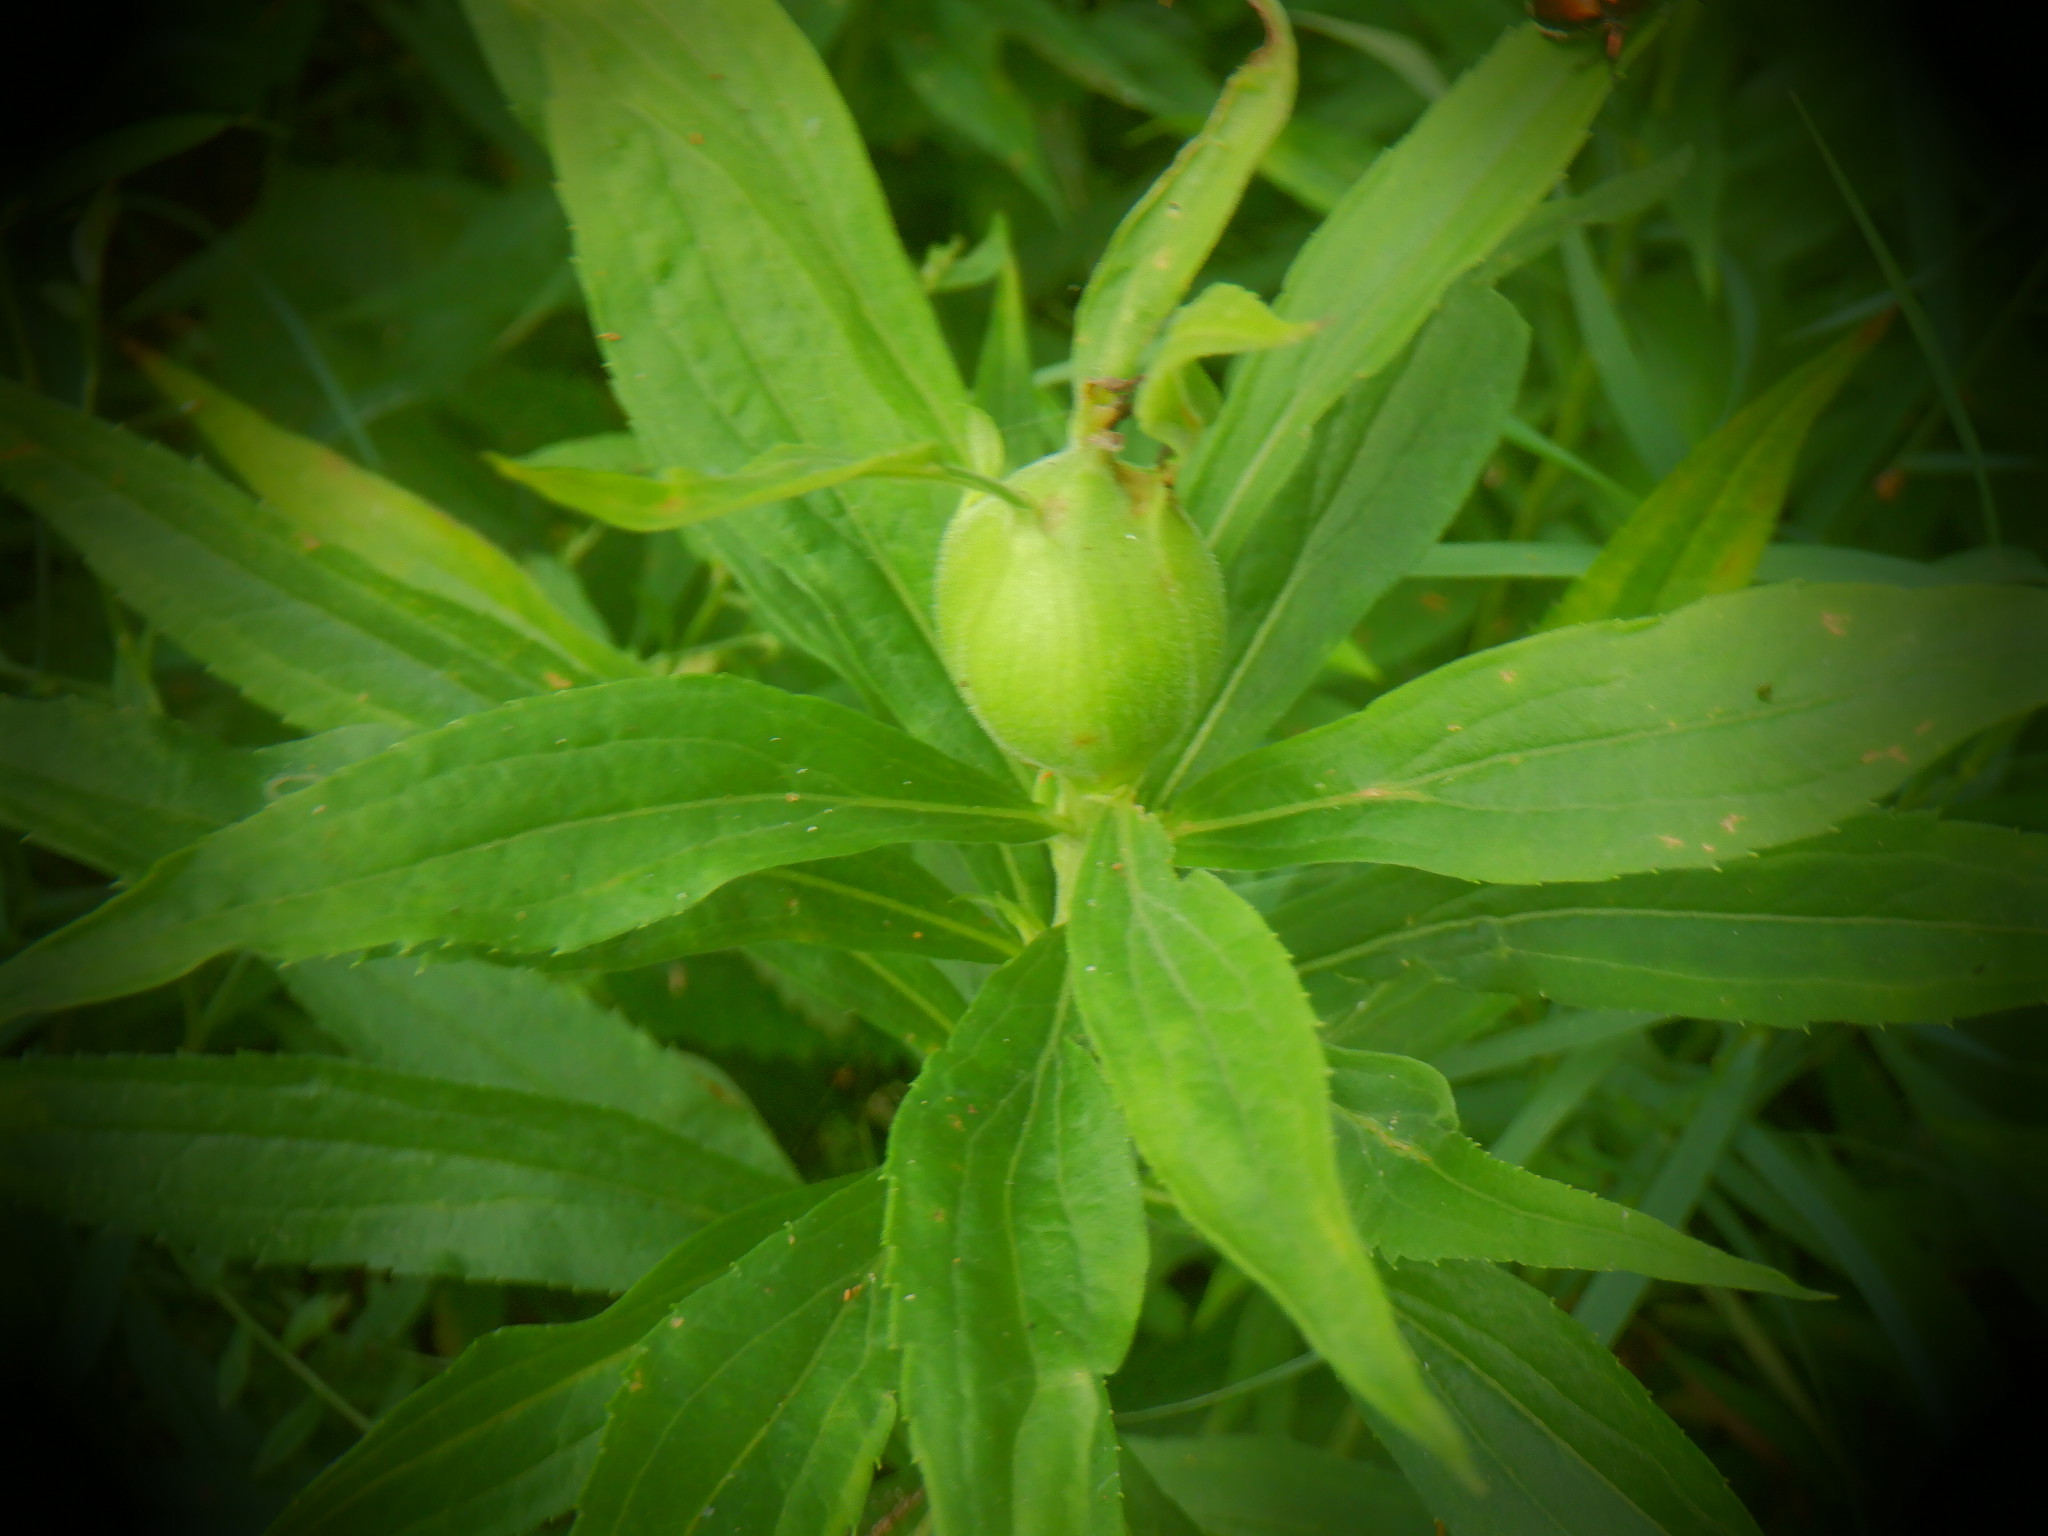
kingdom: Animalia
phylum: Arthropoda
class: Insecta
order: Diptera
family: Tephritidae
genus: Eurosta
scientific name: Eurosta solidaginis
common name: Goldenrod gall fly
